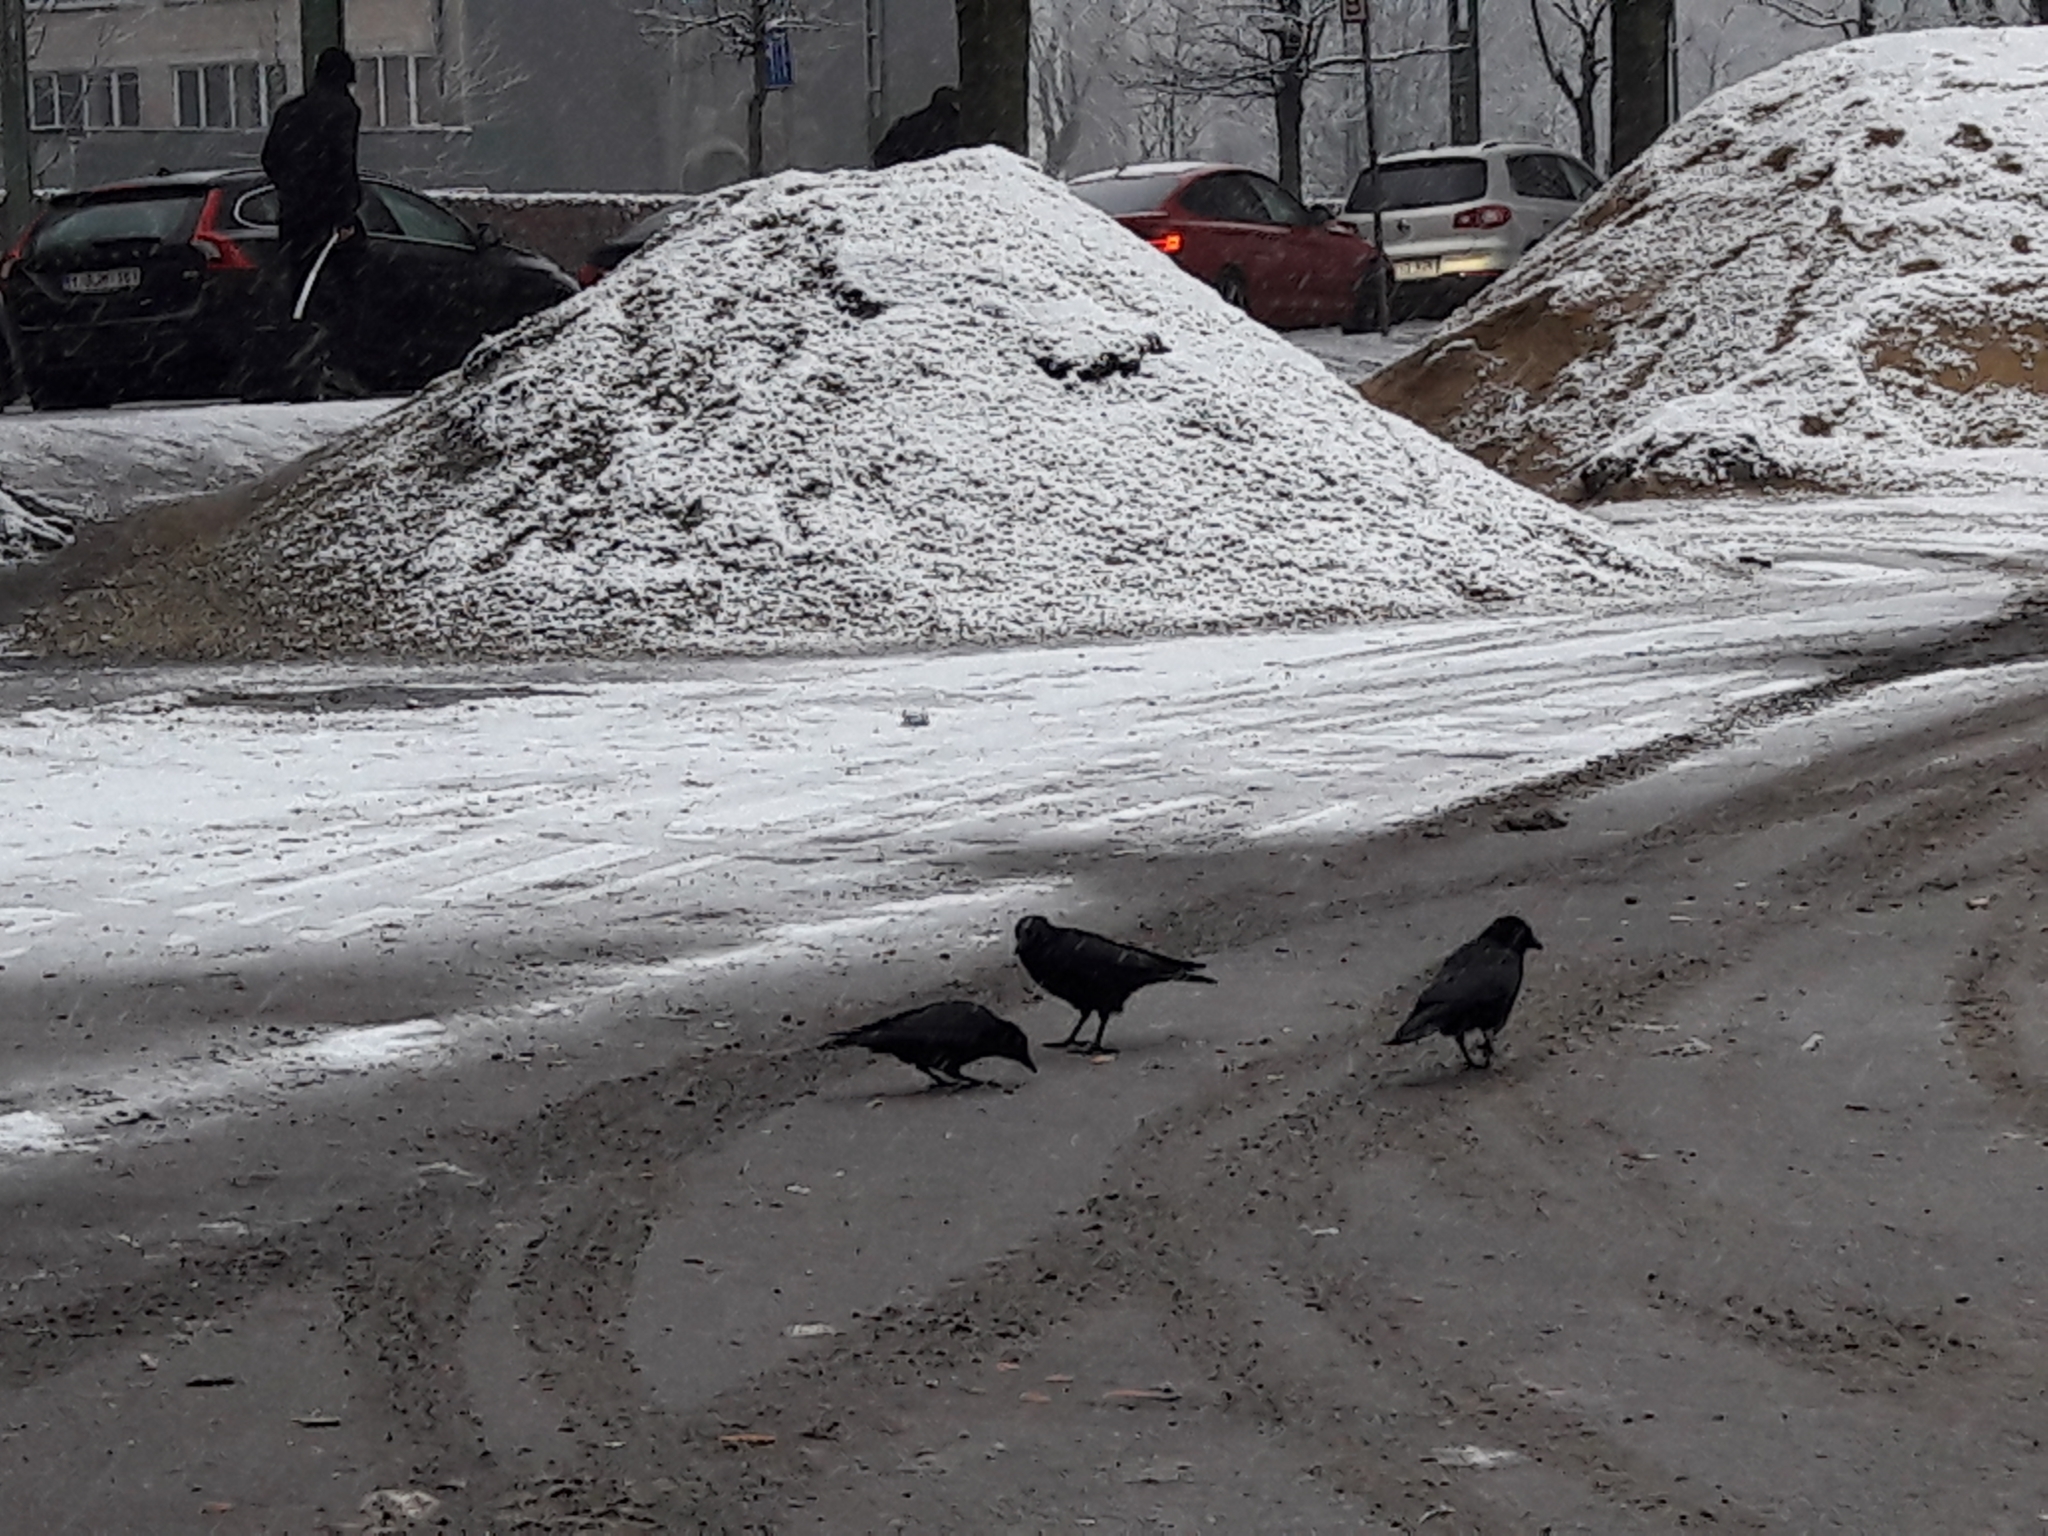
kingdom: Animalia
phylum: Chordata
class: Aves
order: Passeriformes
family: Corvidae
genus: Corvus
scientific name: Corvus corone
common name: Carrion crow
